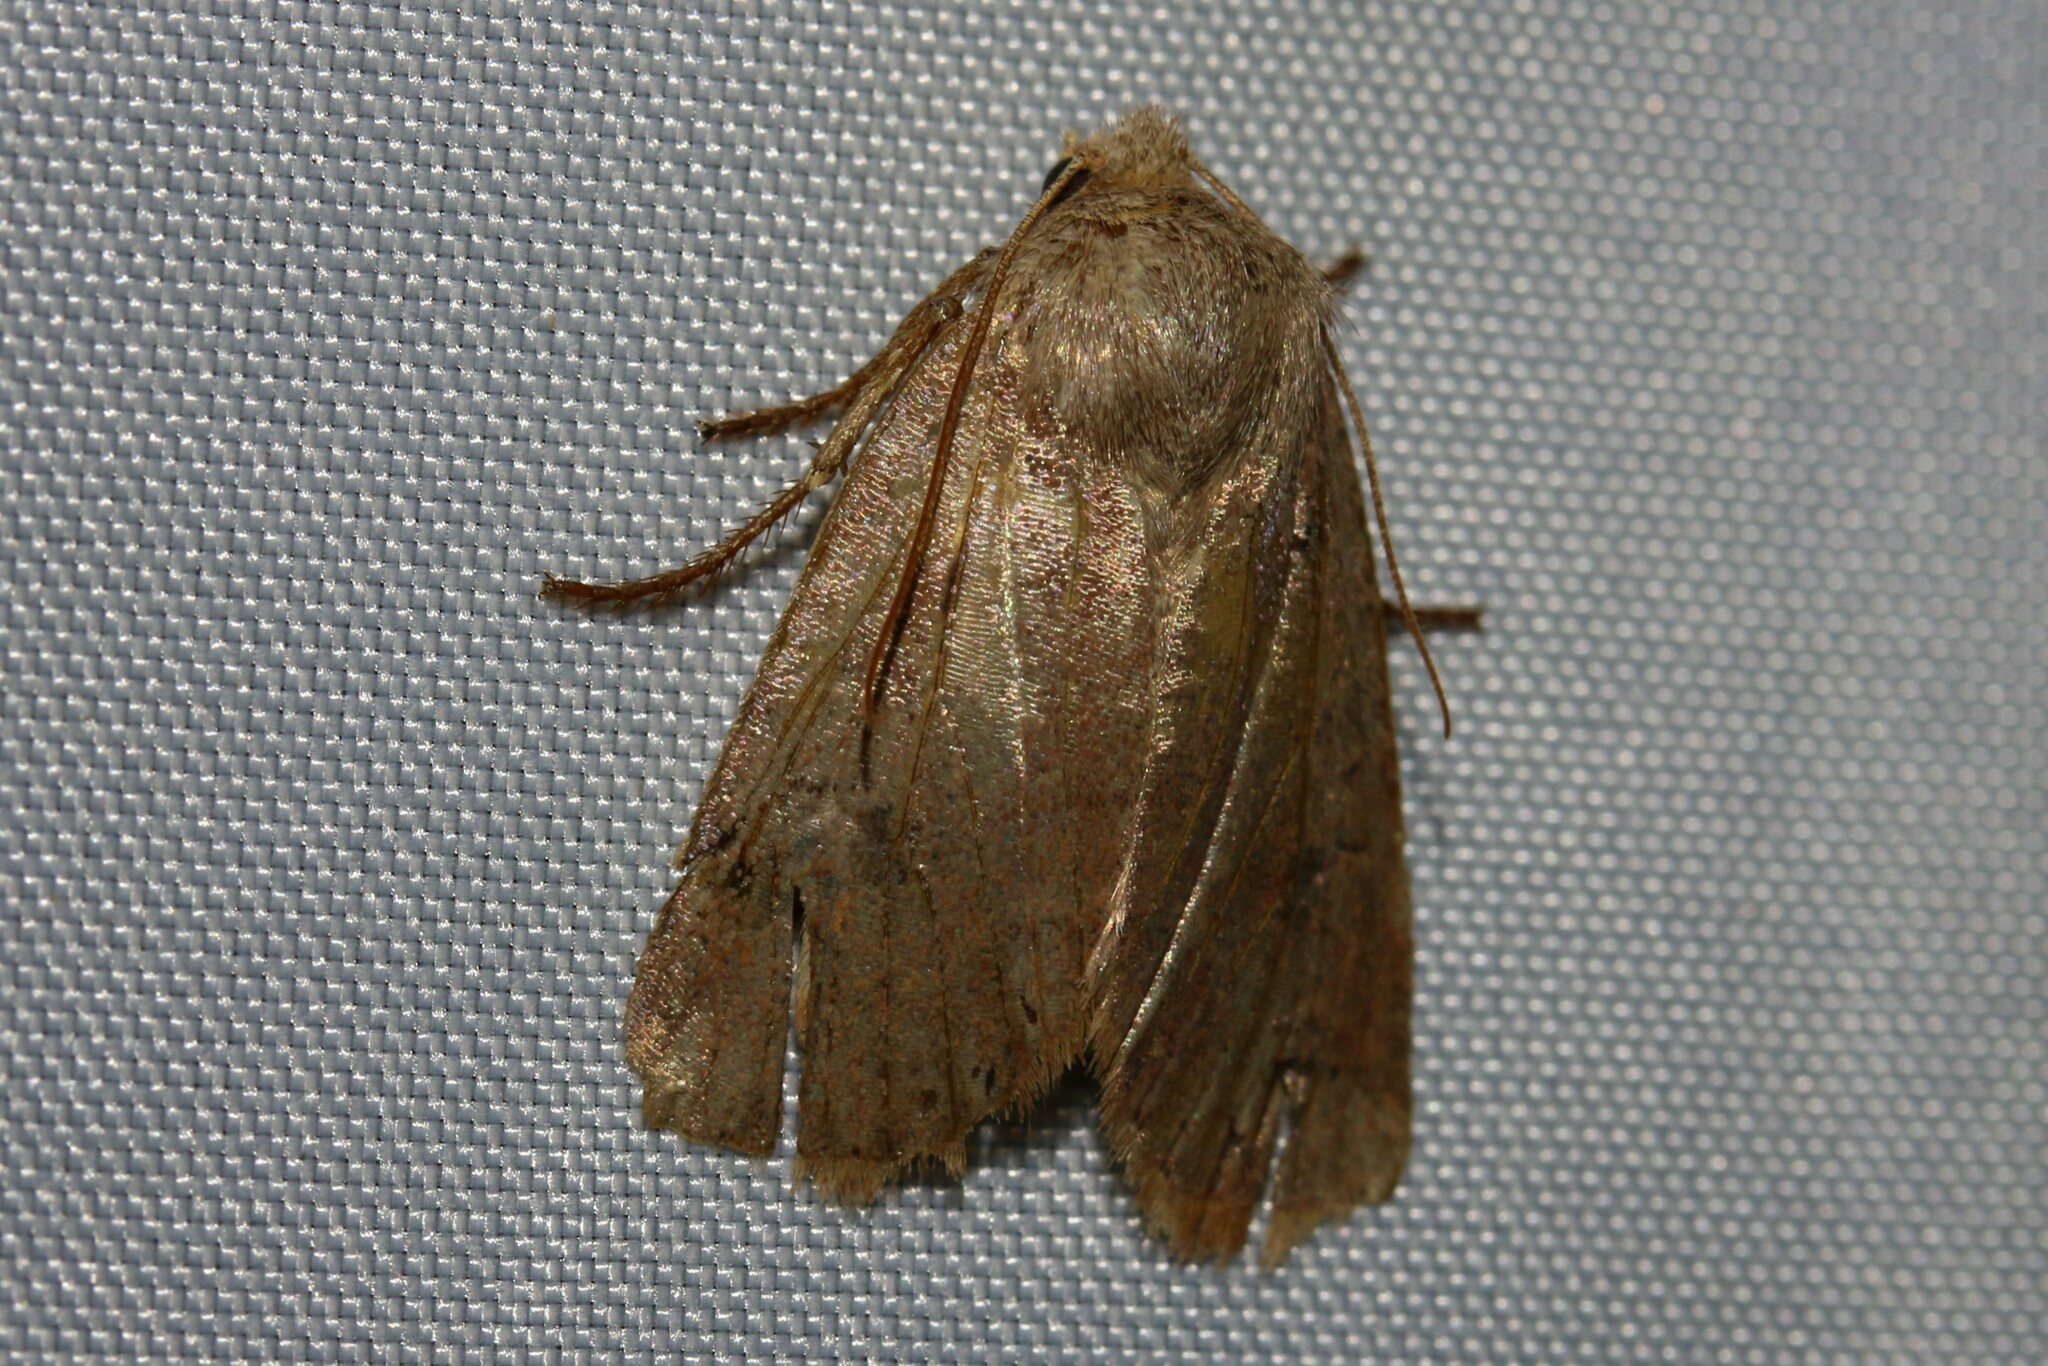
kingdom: Animalia
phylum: Arthropoda
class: Insecta
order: Lepidoptera
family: Noctuidae
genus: Conistra
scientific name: Conistra vaccinii
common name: Chestnut
